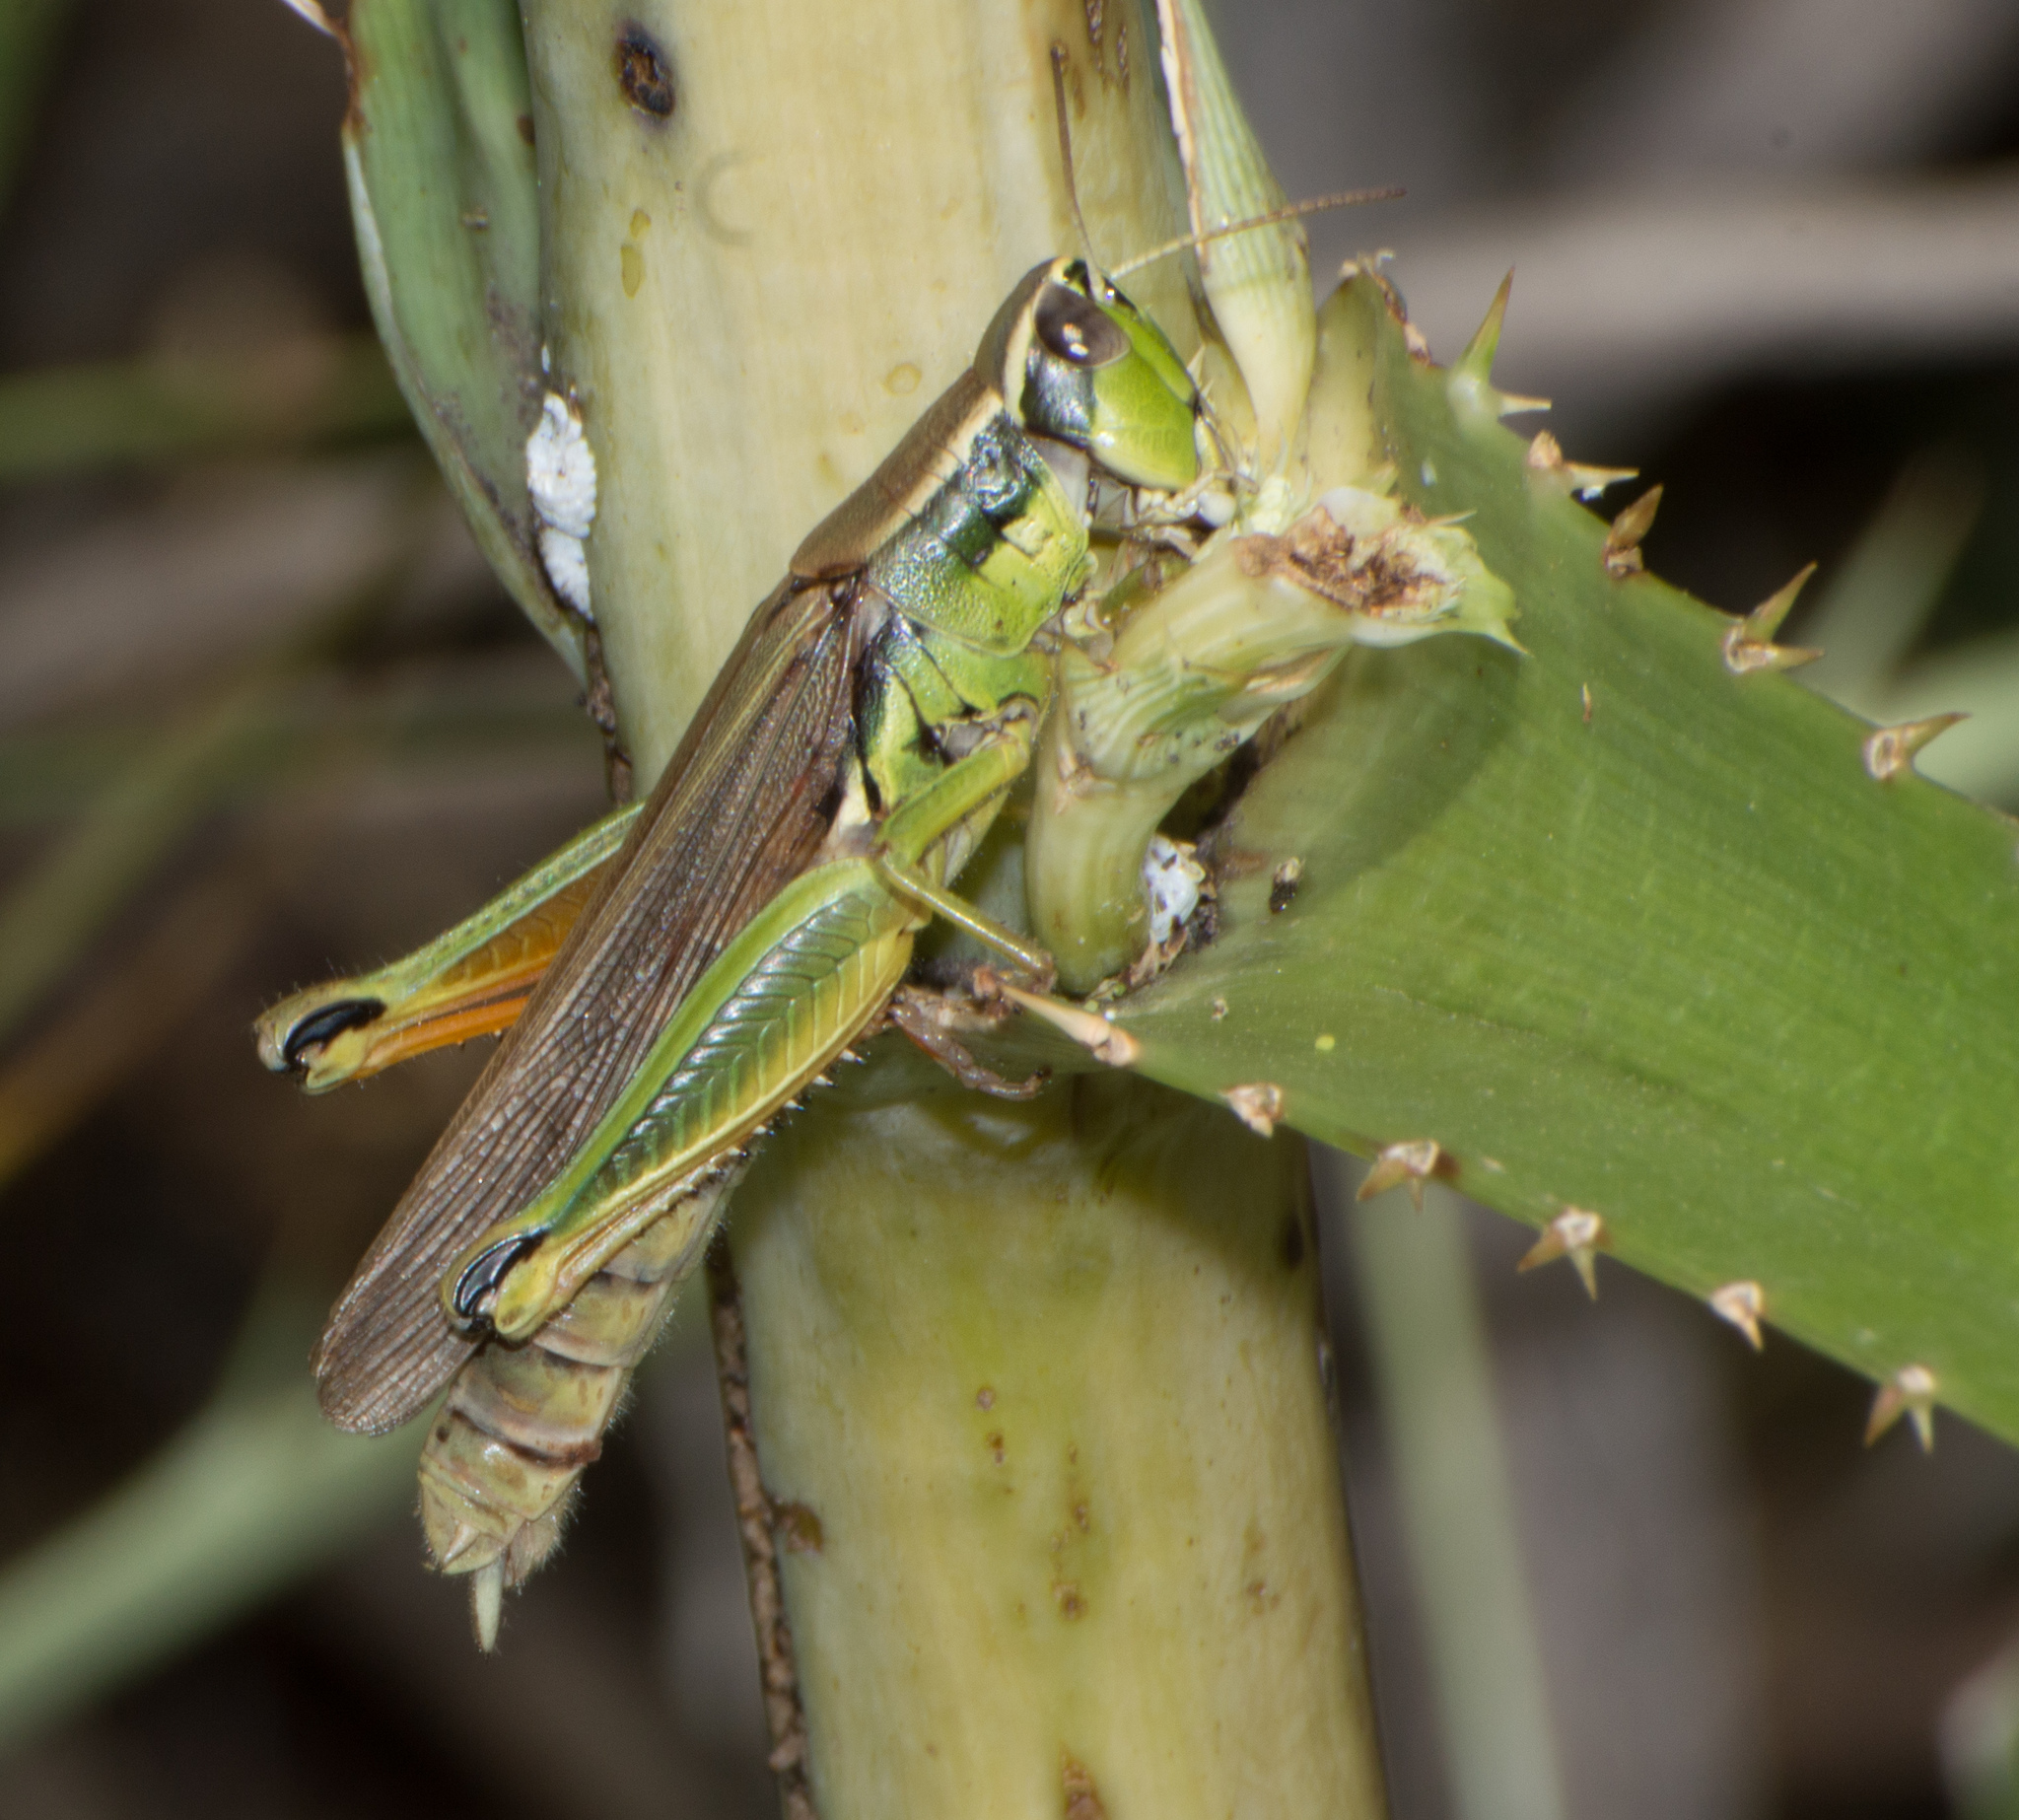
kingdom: Animalia
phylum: Arthropoda
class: Insecta
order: Orthoptera
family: Acrididae
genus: Scotussa
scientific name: Scotussa cliens
